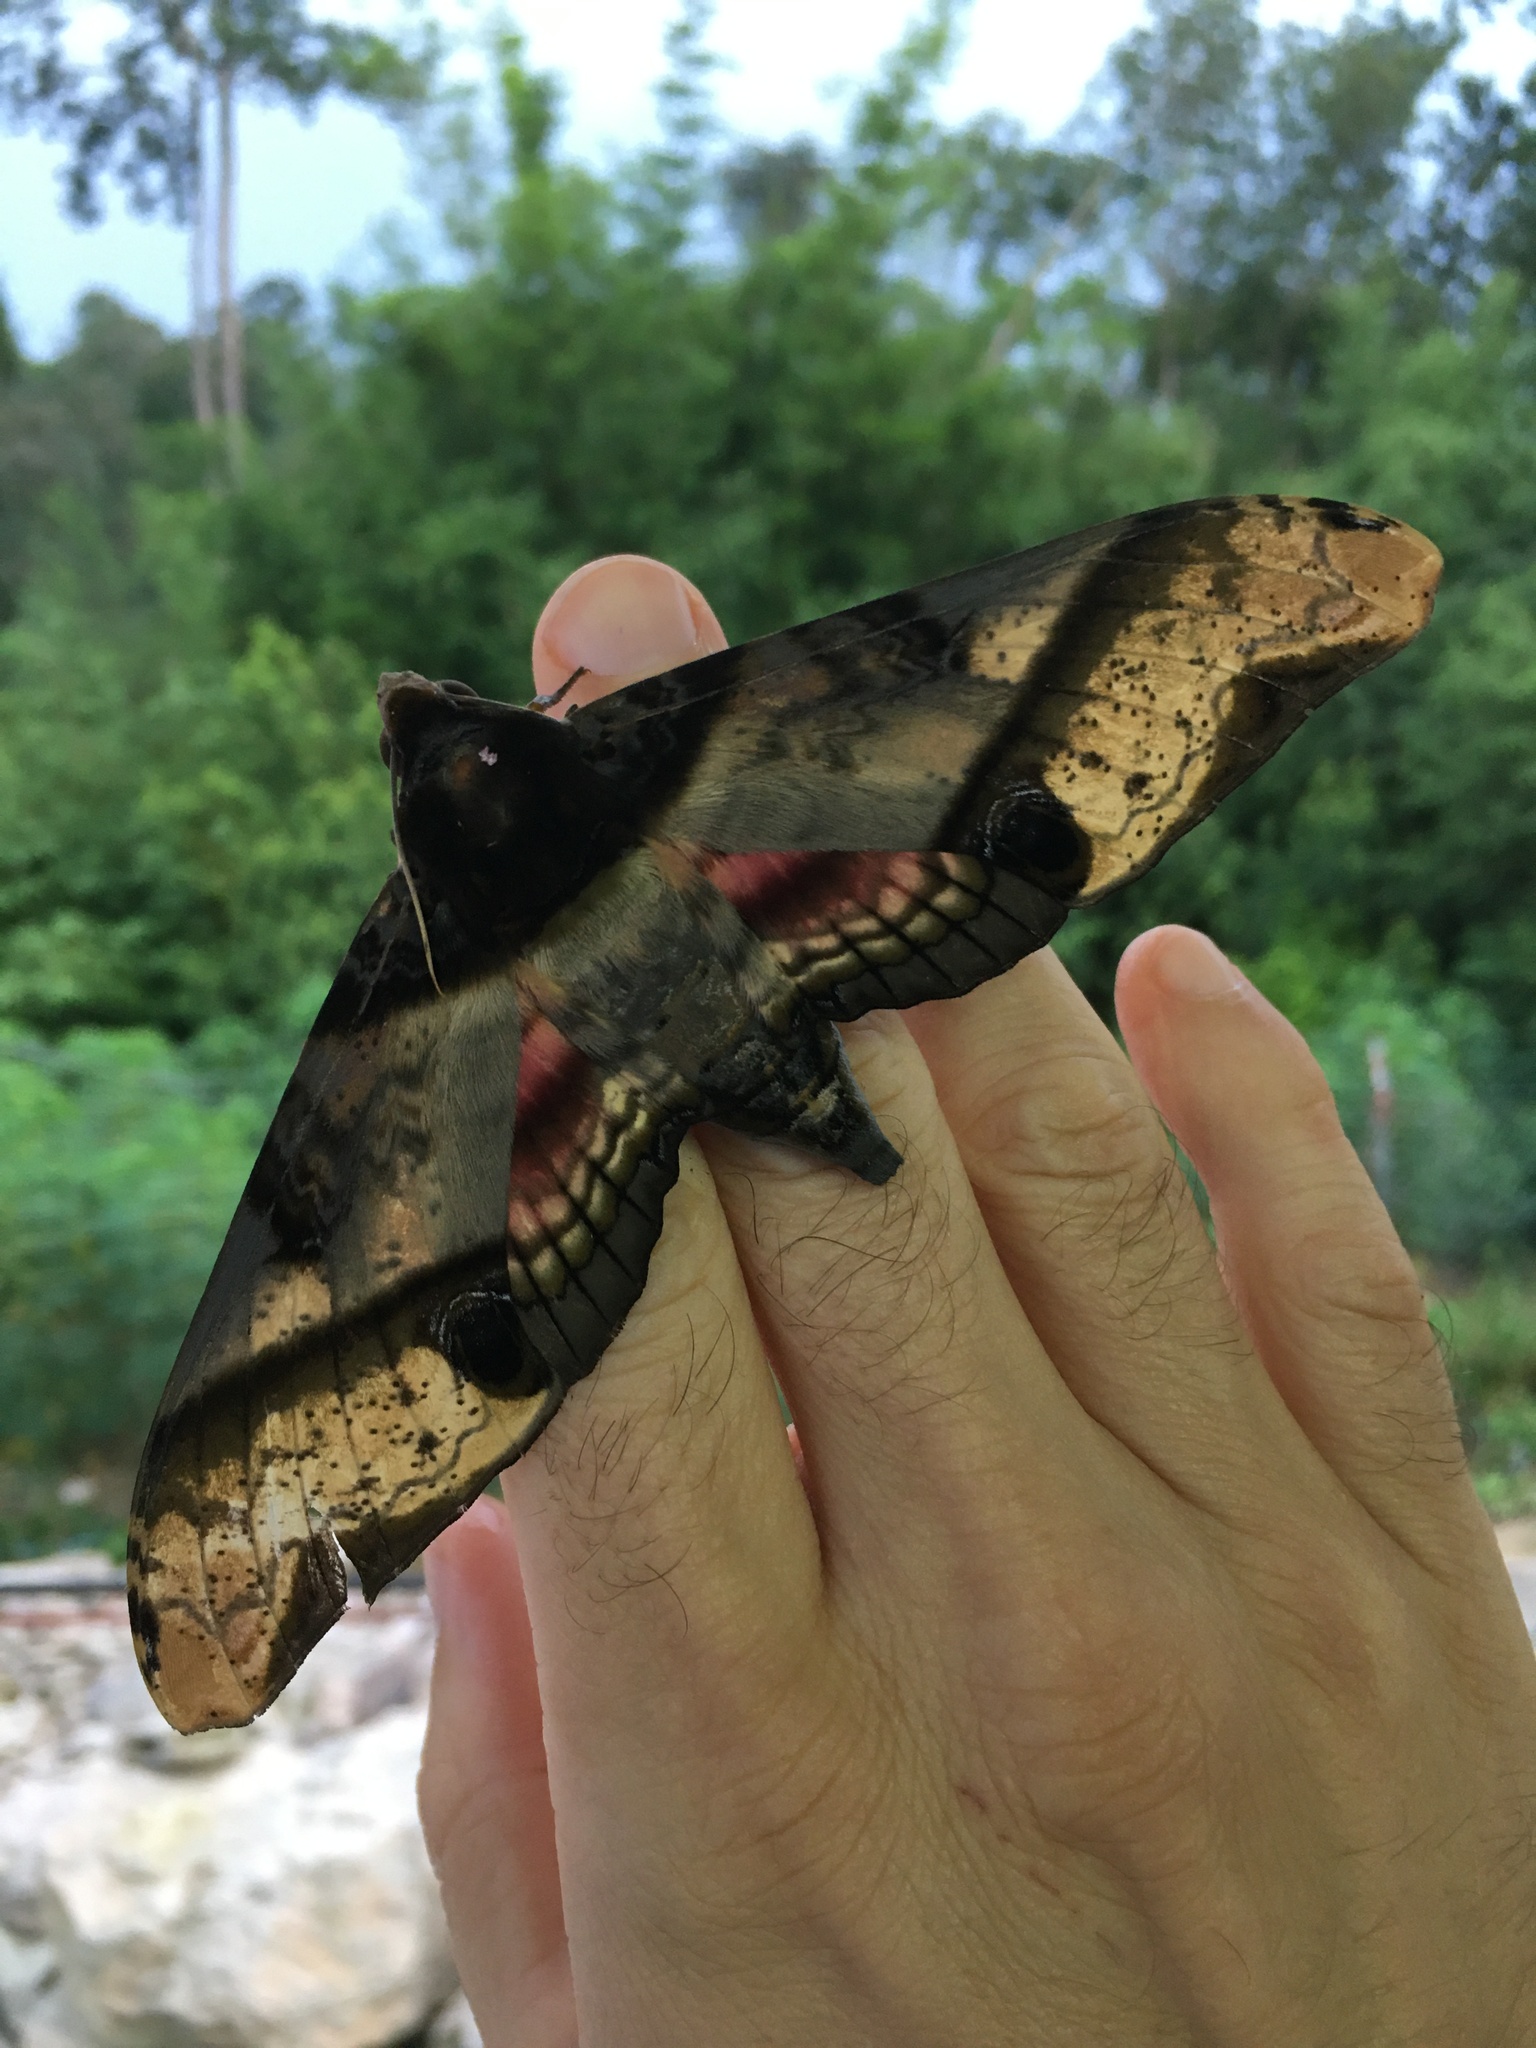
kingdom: Animalia
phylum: Arthropoda
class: Insecta
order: Lepidoptera
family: Sphingidae
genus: Amplypterus
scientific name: Amplypterus panopus
